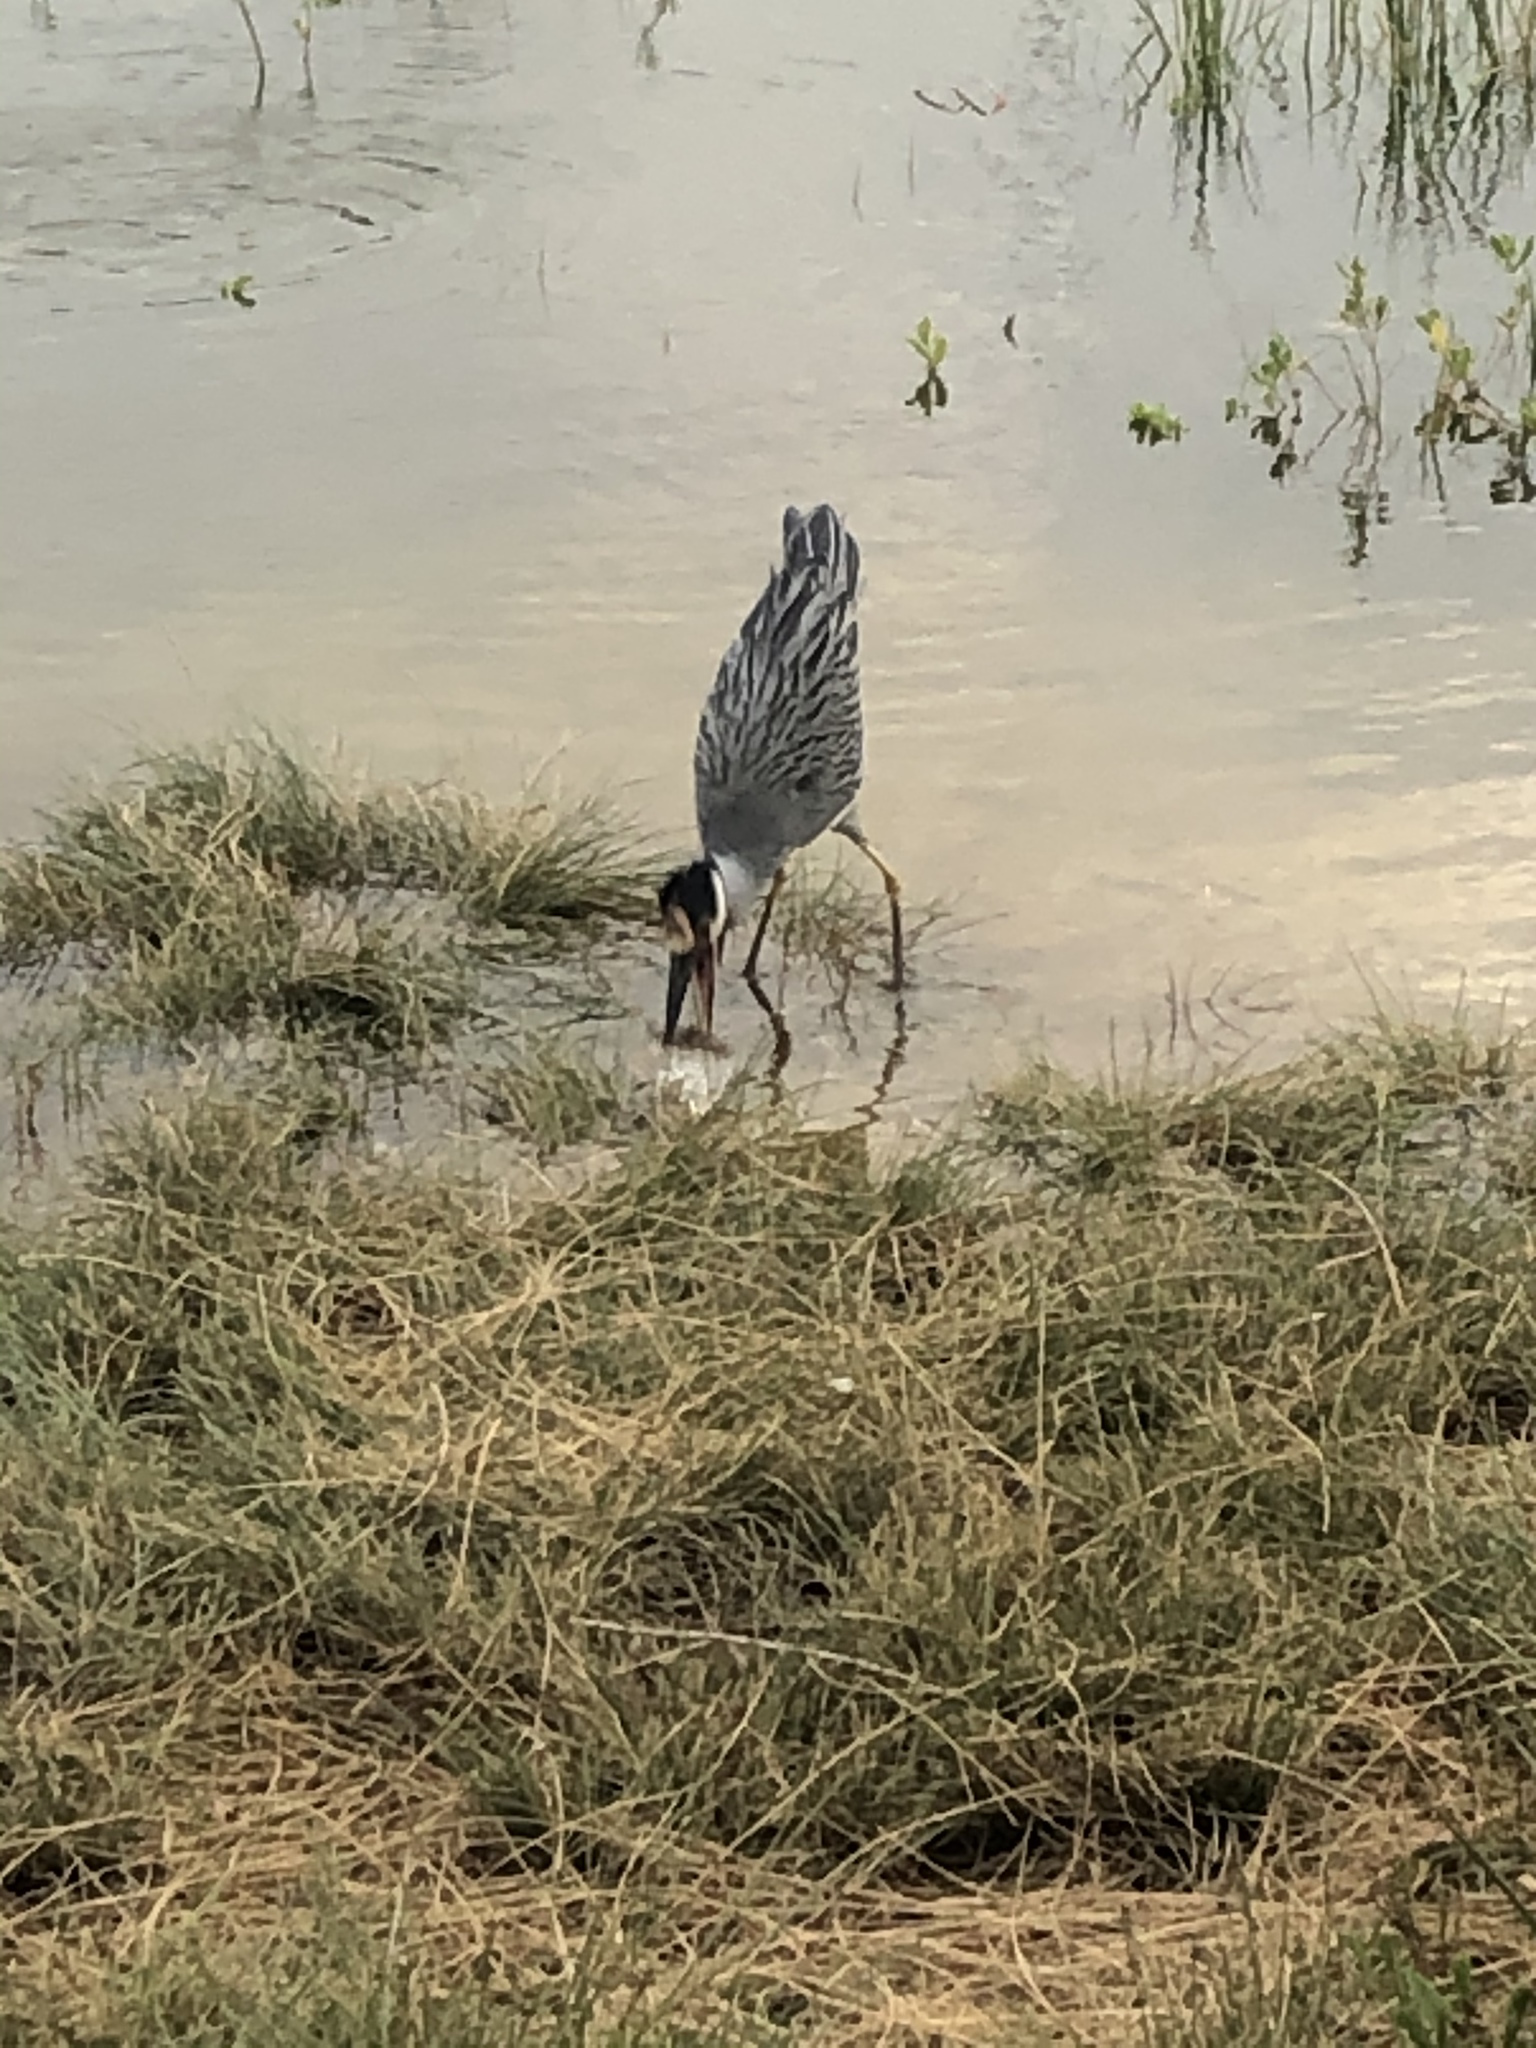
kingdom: Animalia
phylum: Chordata
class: Aves
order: Pelecaniformes
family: Ardeidae
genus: Nyctanassa
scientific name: Nyctanassa violacea
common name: Yellow-crowned night heron
